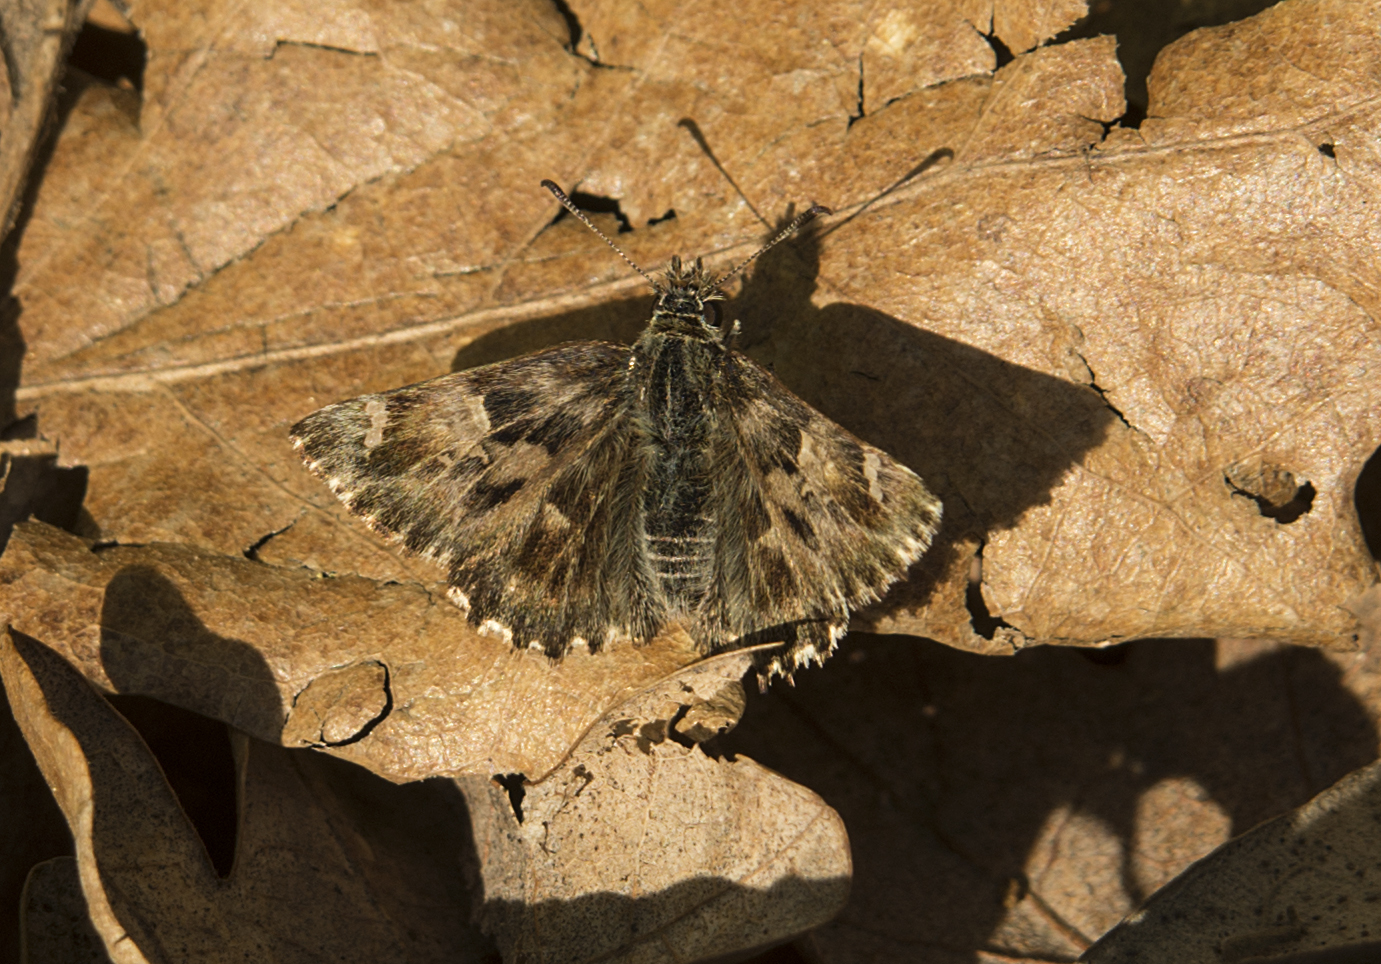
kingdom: Animalia
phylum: Arthropoda
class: Insecta
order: Lepidoptera
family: Hesperiidae
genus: Carcharodus
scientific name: Carcharodus alceae
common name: Mallow skipper
